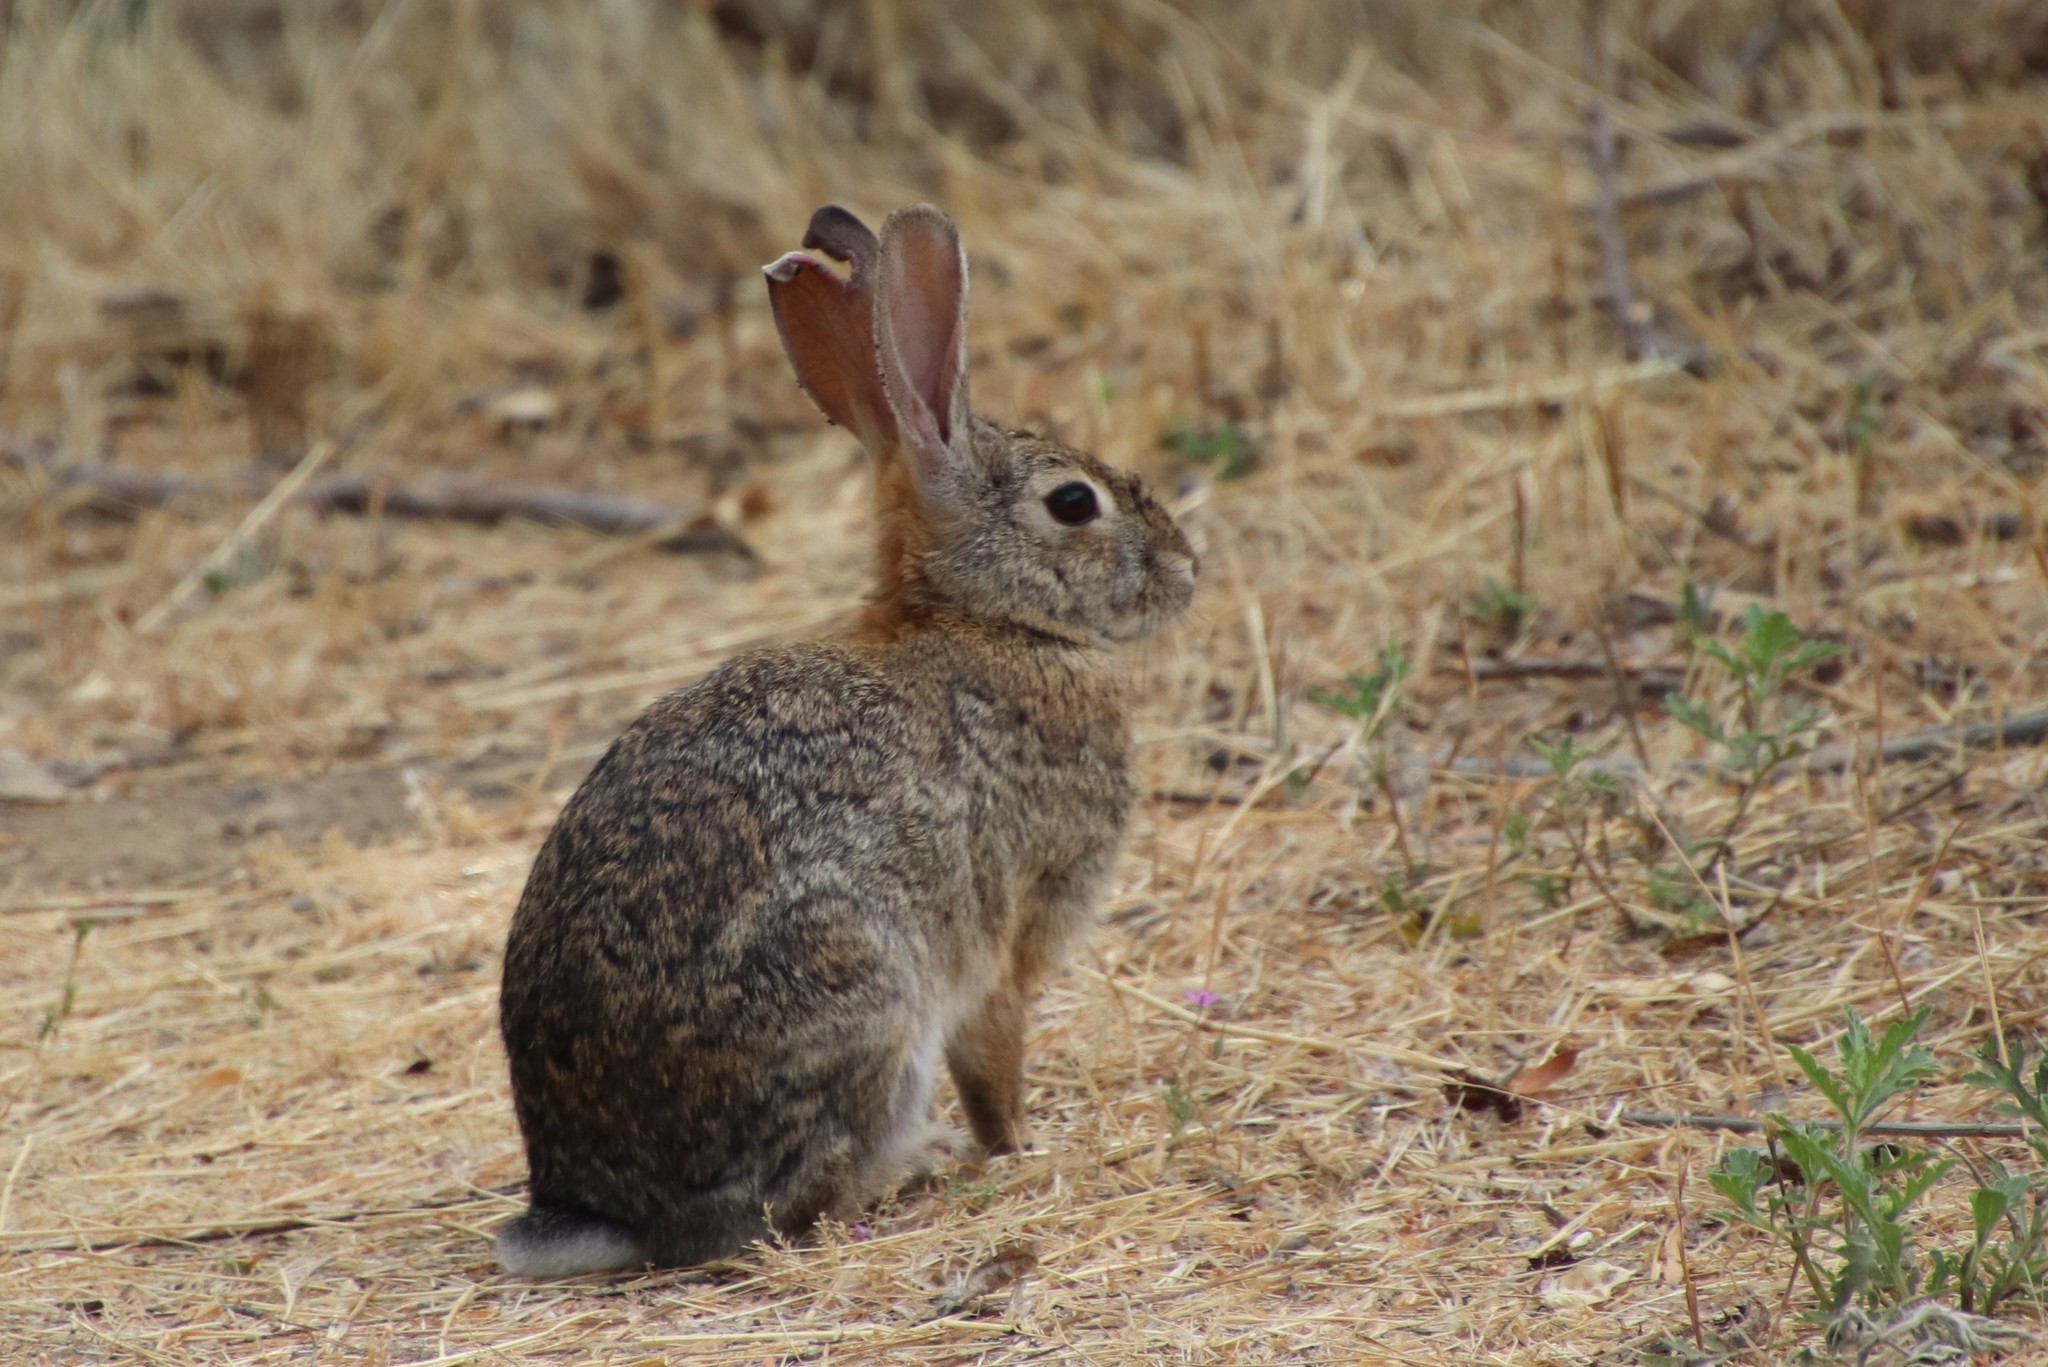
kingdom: Animalia
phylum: Chordata
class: Mammalia
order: Lagomorpha
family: Leporidae
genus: Sylvilagus
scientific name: Sylvilagus audubonii
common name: Desert cottontail
